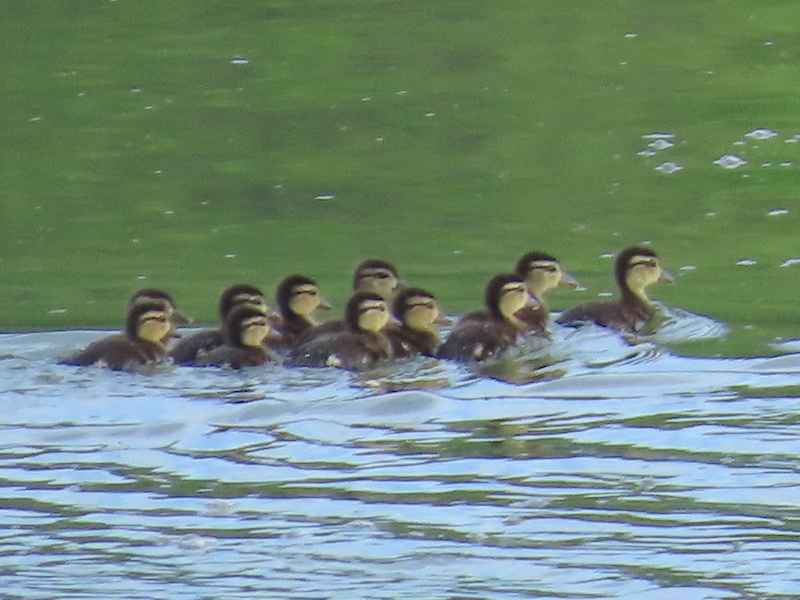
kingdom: Animalia
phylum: Chordata
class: Aves
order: Anseriformes
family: Anatidae
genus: Aix
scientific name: Aix sponsa
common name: Wood duck
